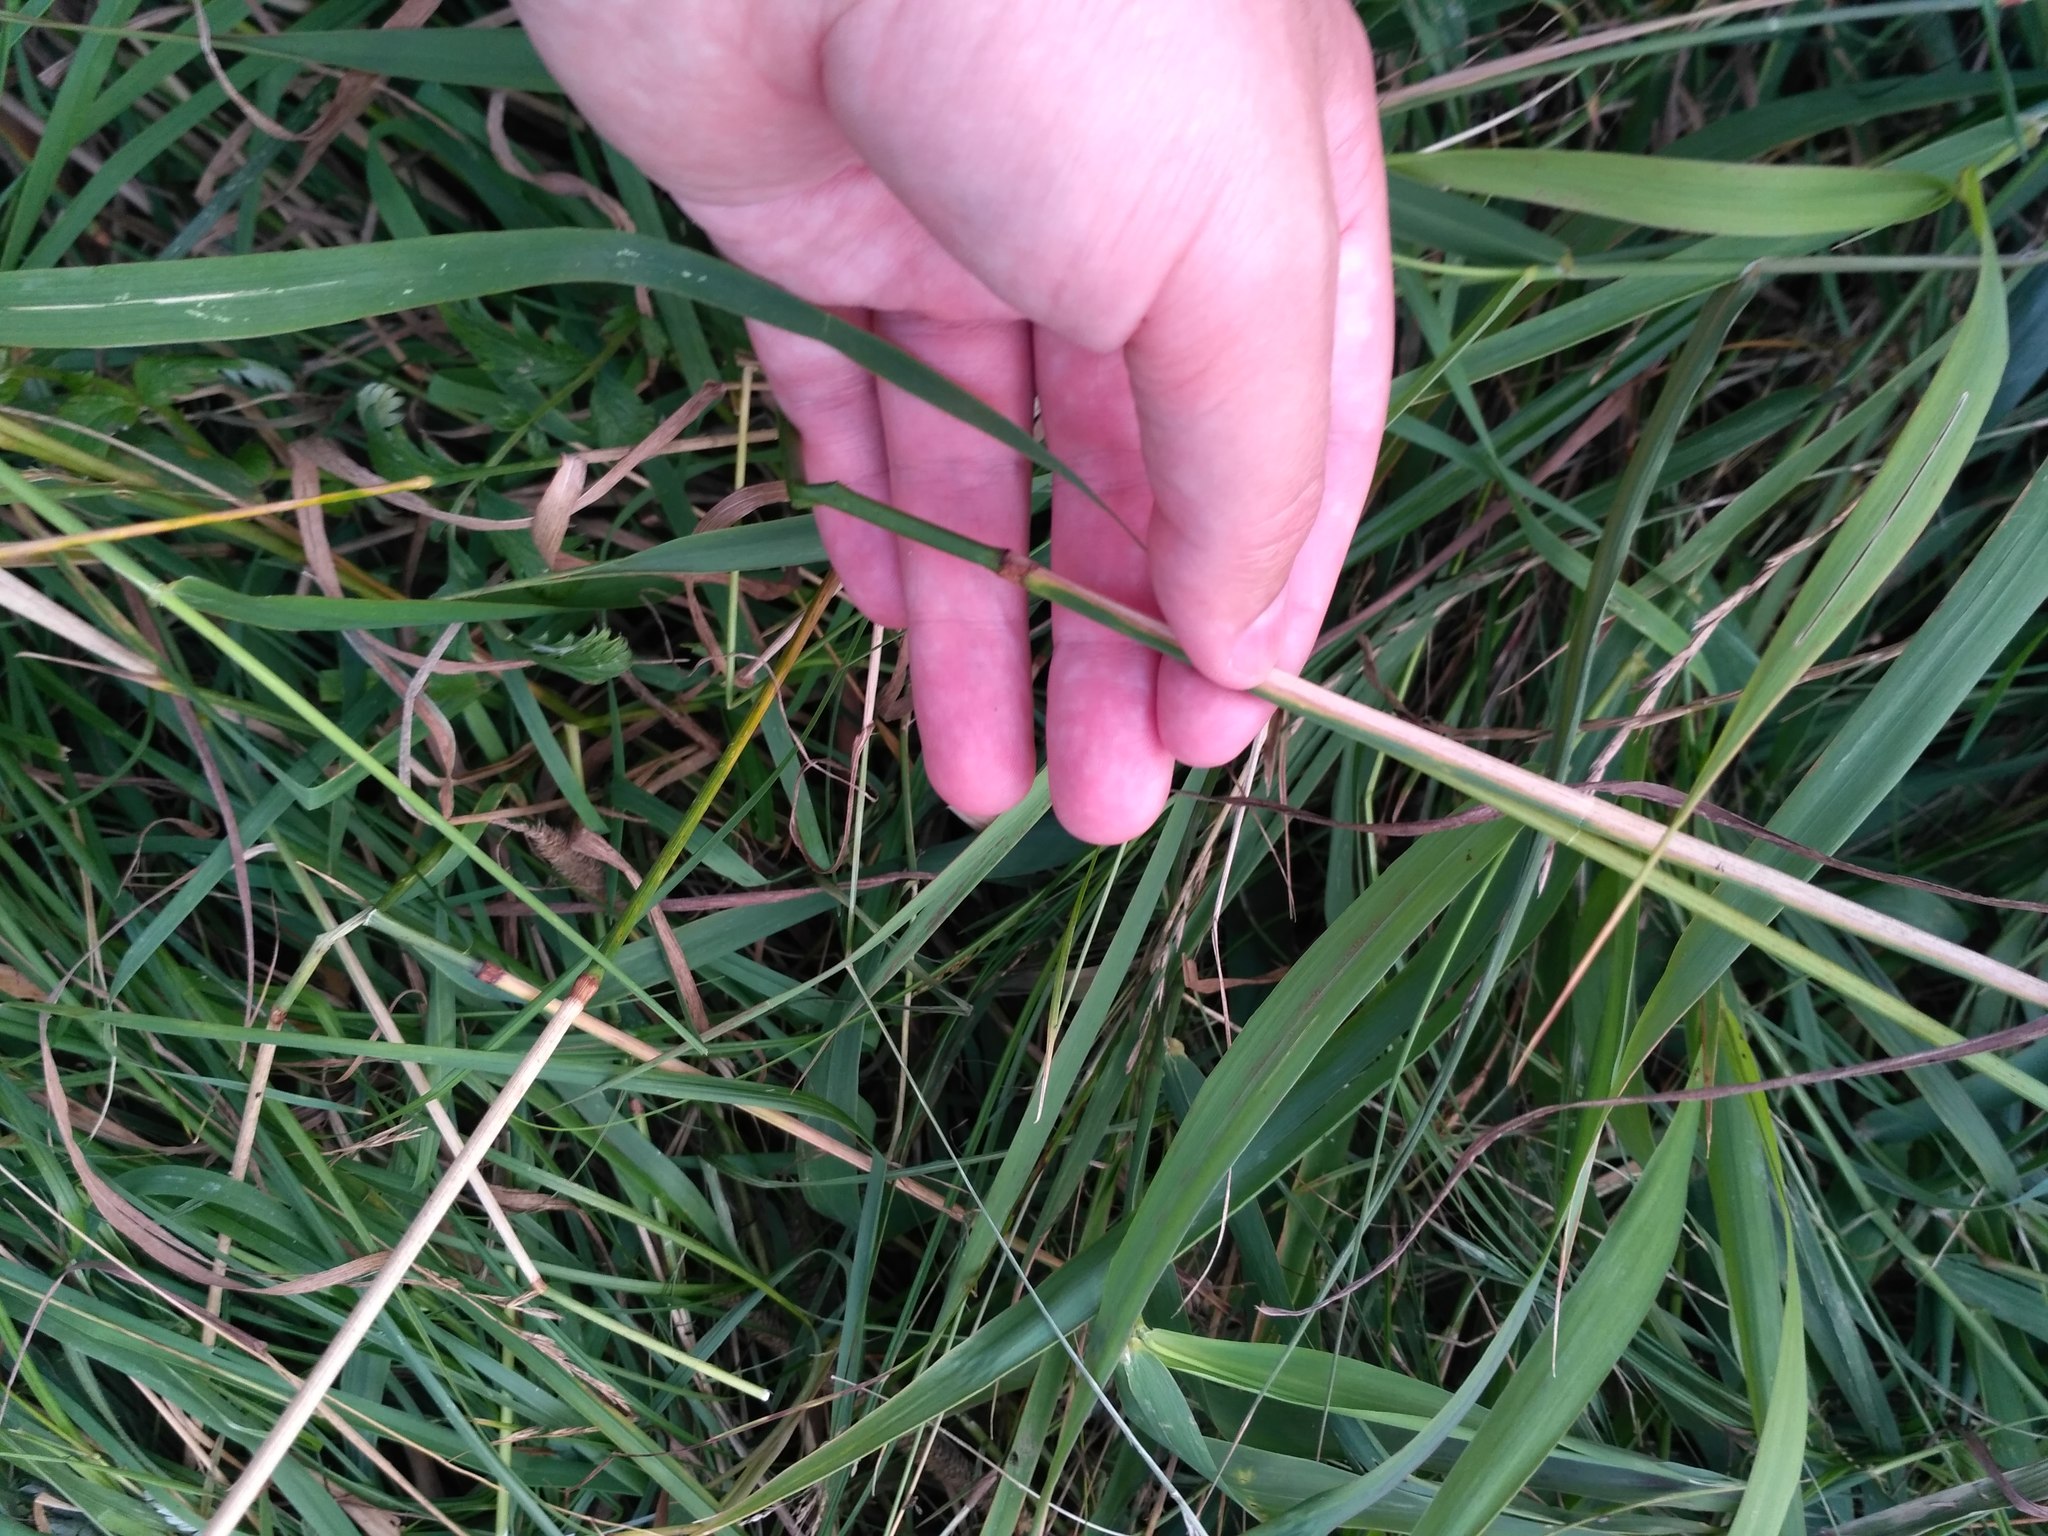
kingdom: Plantae
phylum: Tracheophyta
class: Liliopsida
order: Poales
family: Poaceae
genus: Phleum
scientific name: Phleum pratense
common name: Timothy grass
